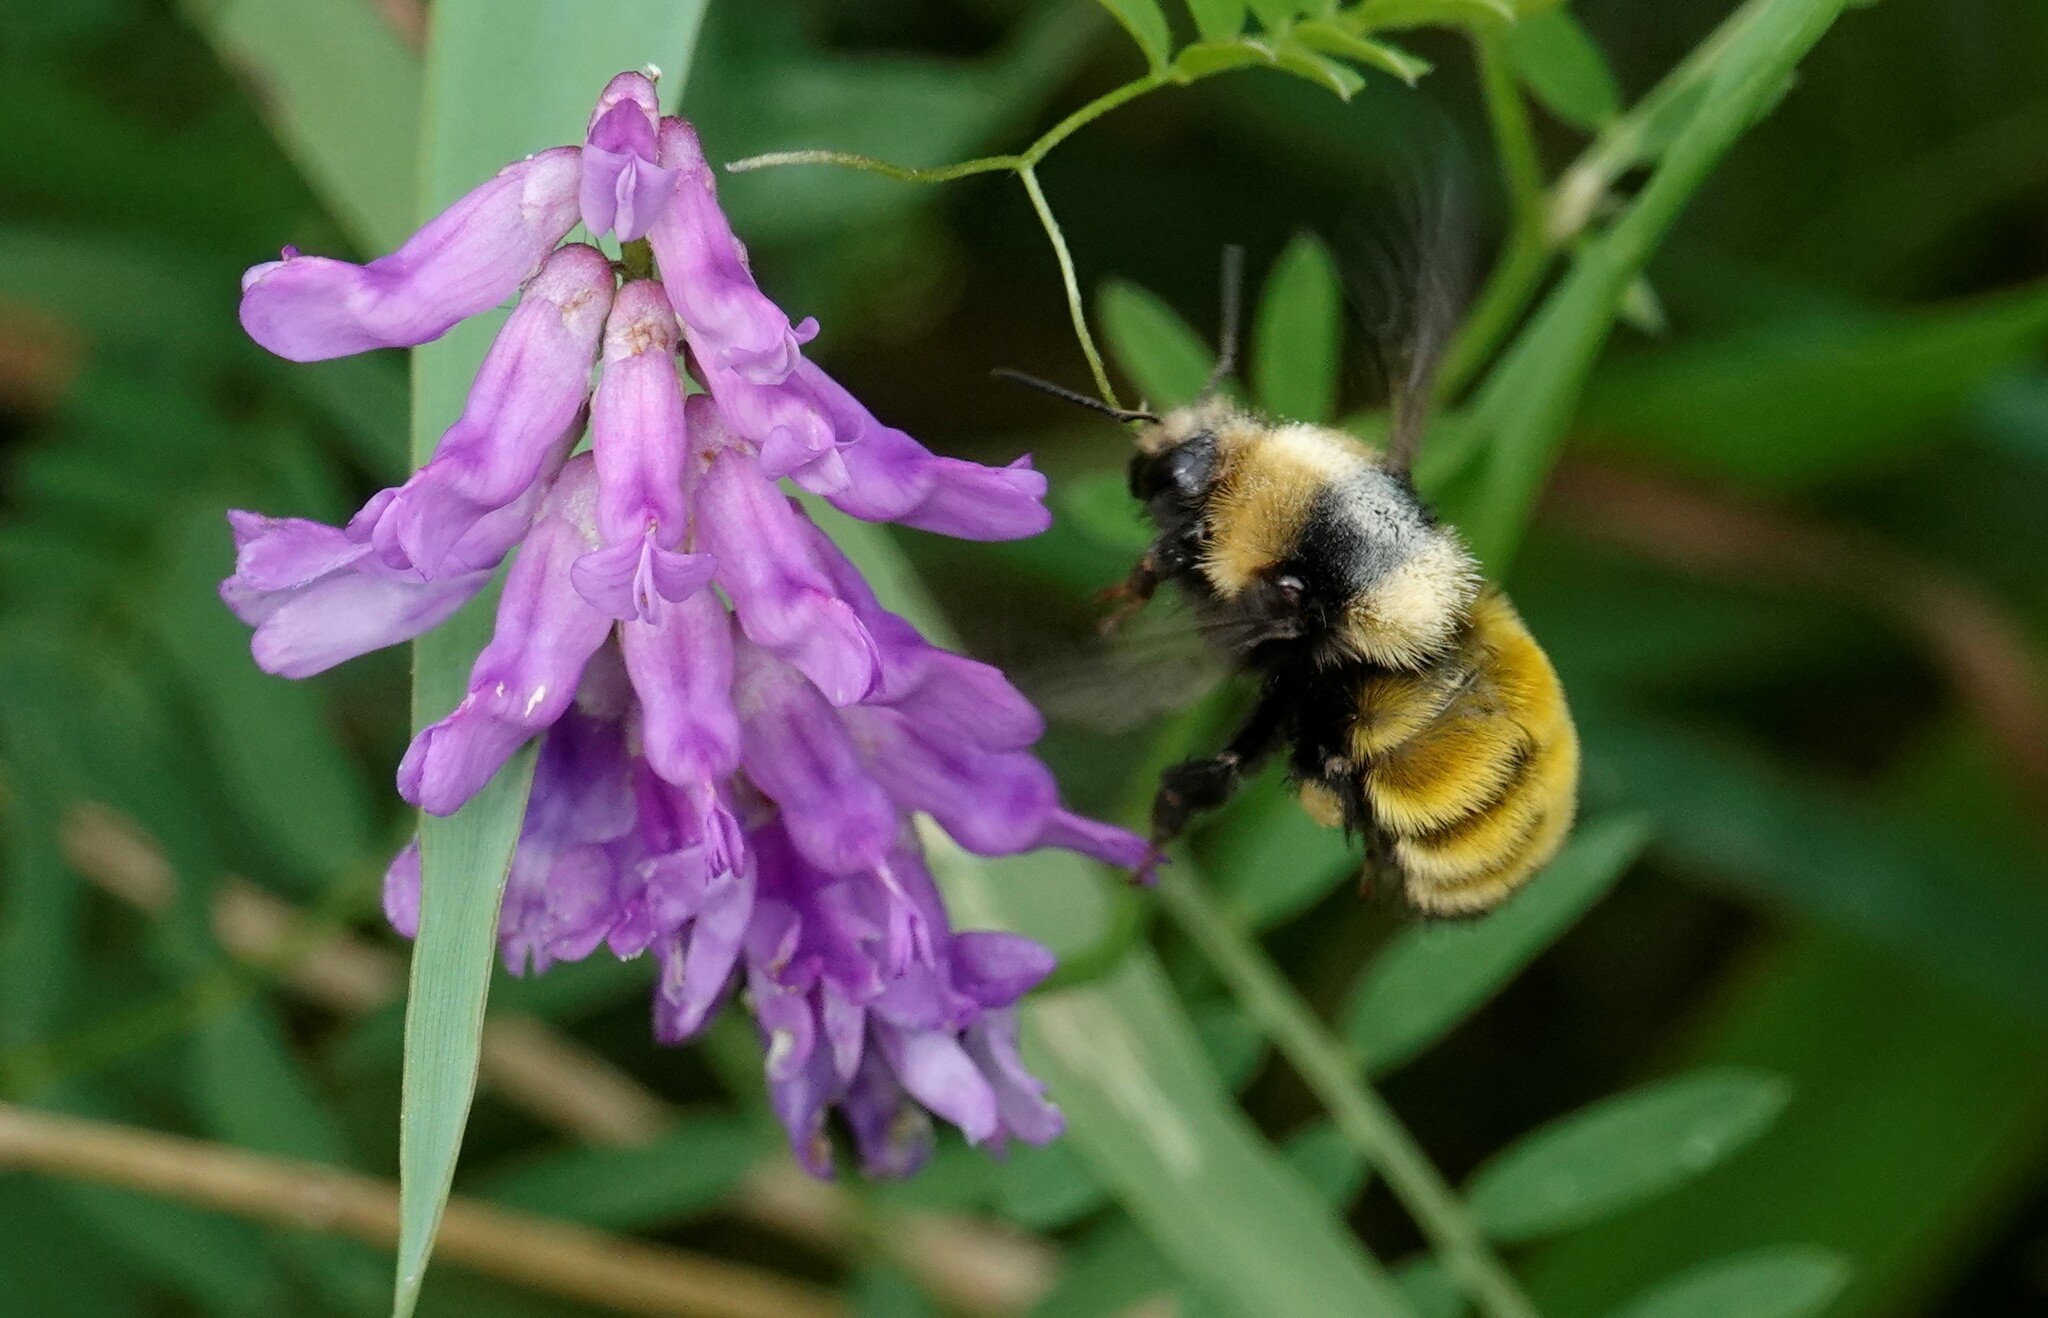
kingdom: Animalia
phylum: Arthropoda
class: Insecta
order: Hymenoptera
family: Apidae
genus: Bombus
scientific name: Bombus borealis
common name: Northern amber bumble bee
